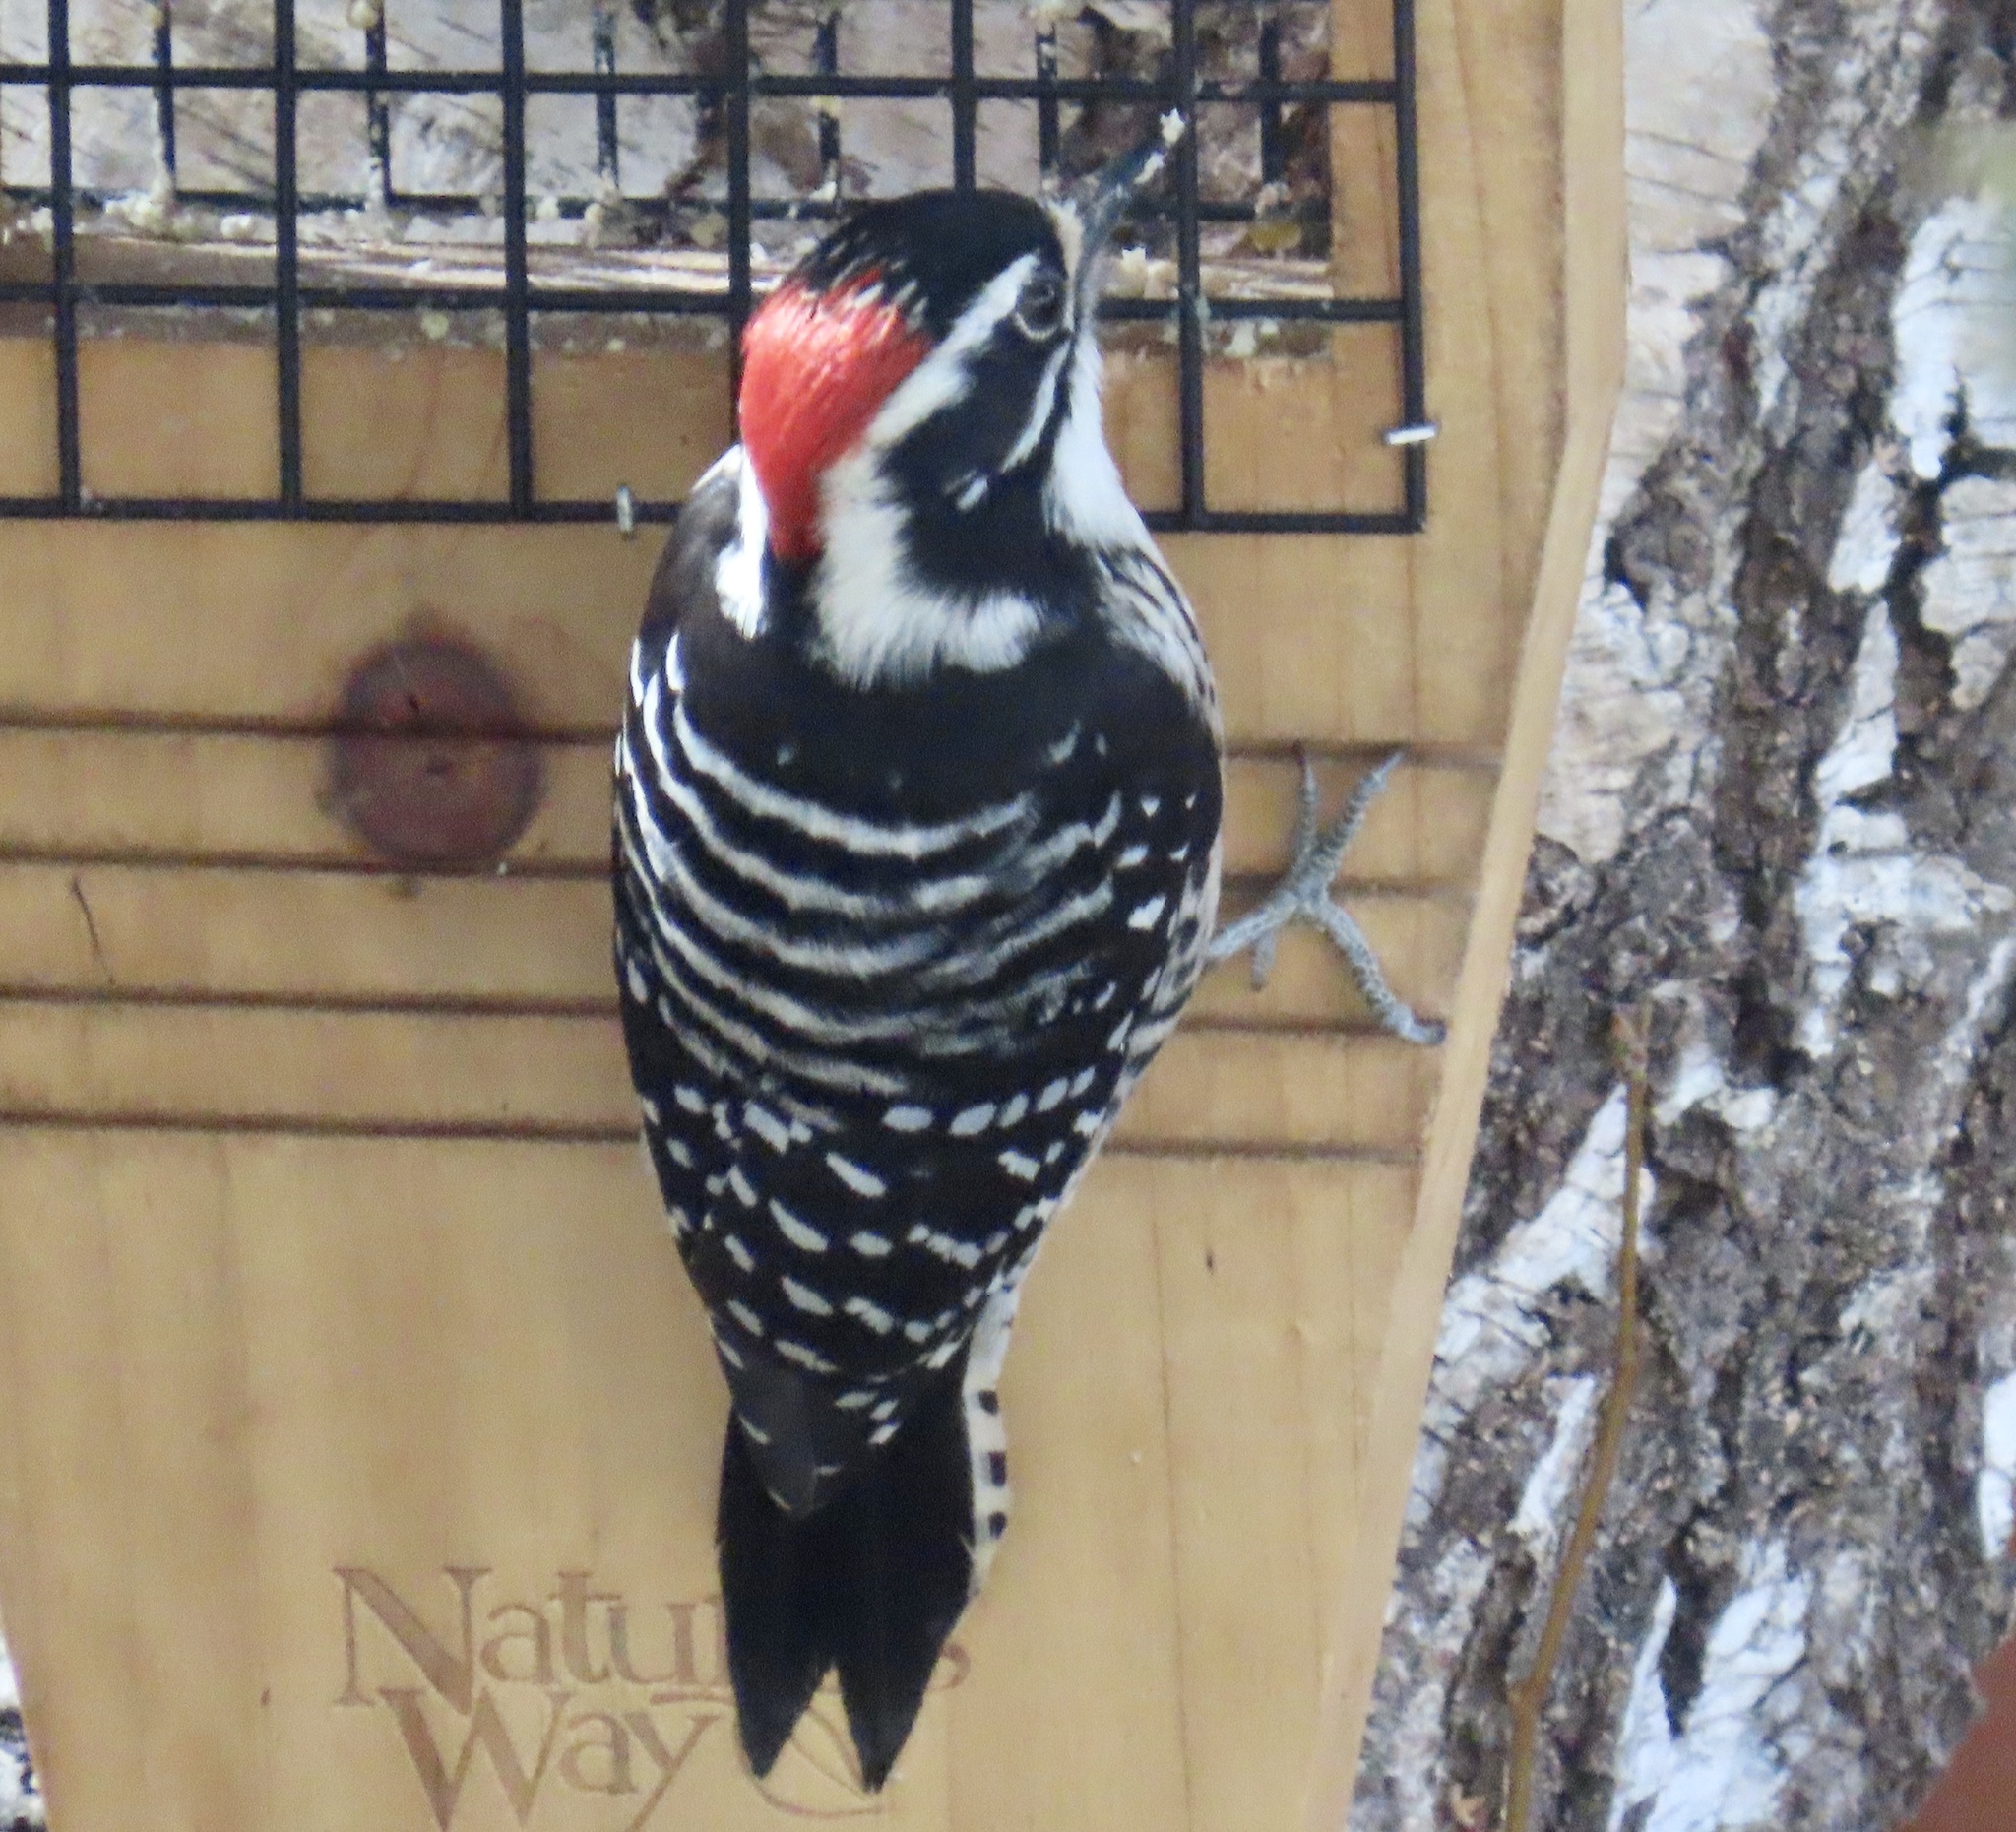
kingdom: Animalia
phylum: Chordata
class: Aves
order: Piciformes
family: Picidae
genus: Dryobates
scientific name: Dryobates nuttallii
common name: Nuttall's woodpecker
